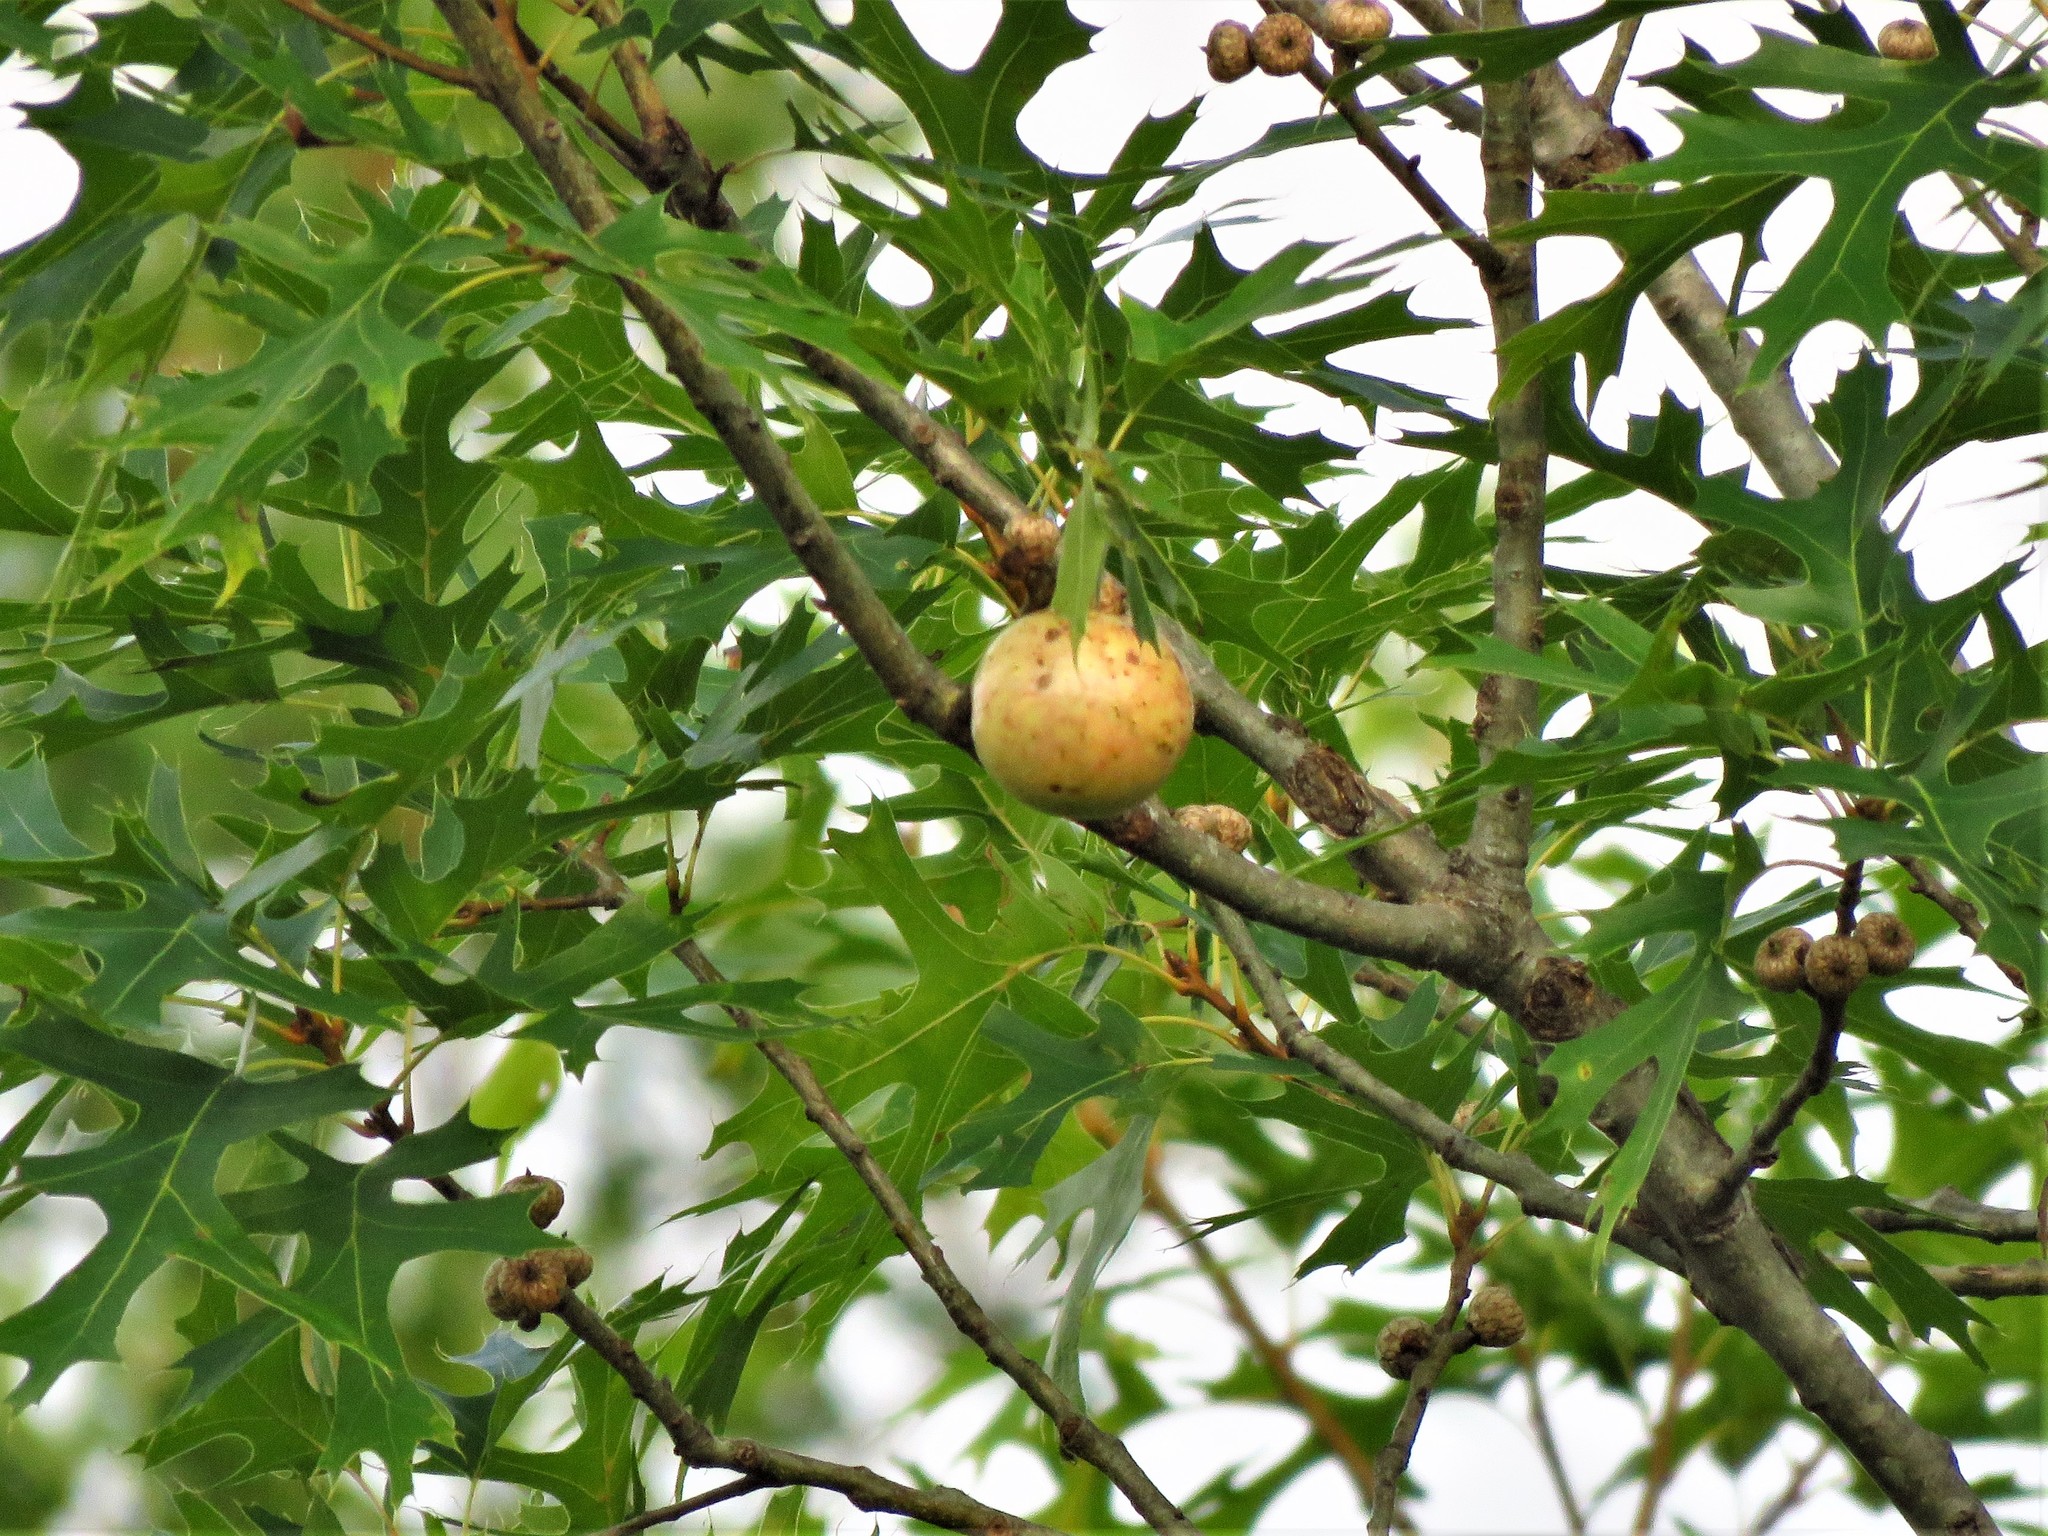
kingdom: Animalia
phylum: Arthropoda
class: Insecta
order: Hymenoptera
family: Cynipidae
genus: Amphibolips
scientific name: Amphibolips
